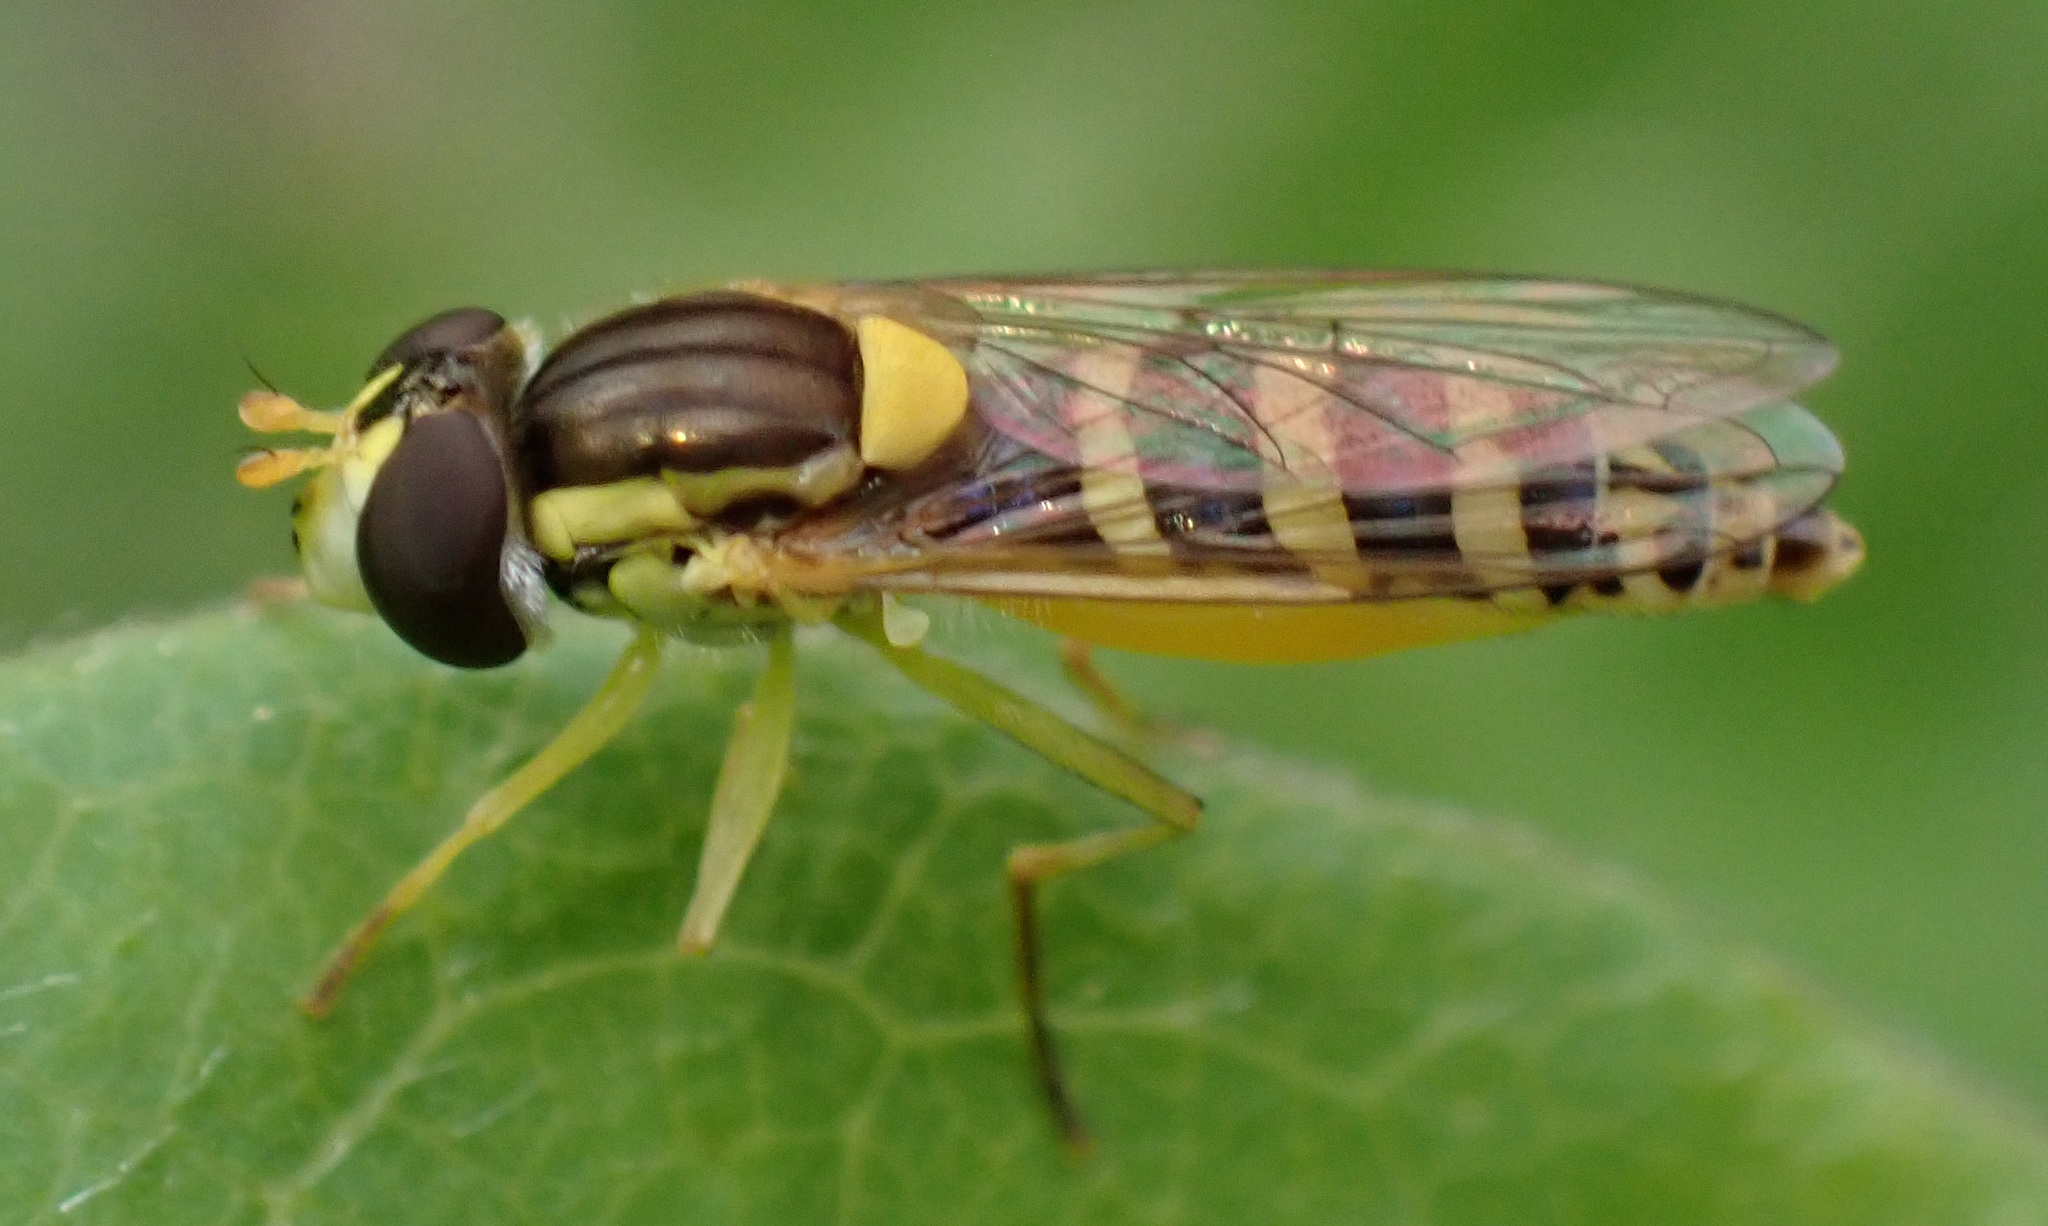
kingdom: Animalia
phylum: Arthropoda
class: Insecta
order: Diptera
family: Syrphidae
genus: Sphaerophoria
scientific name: Sphaerophoria
